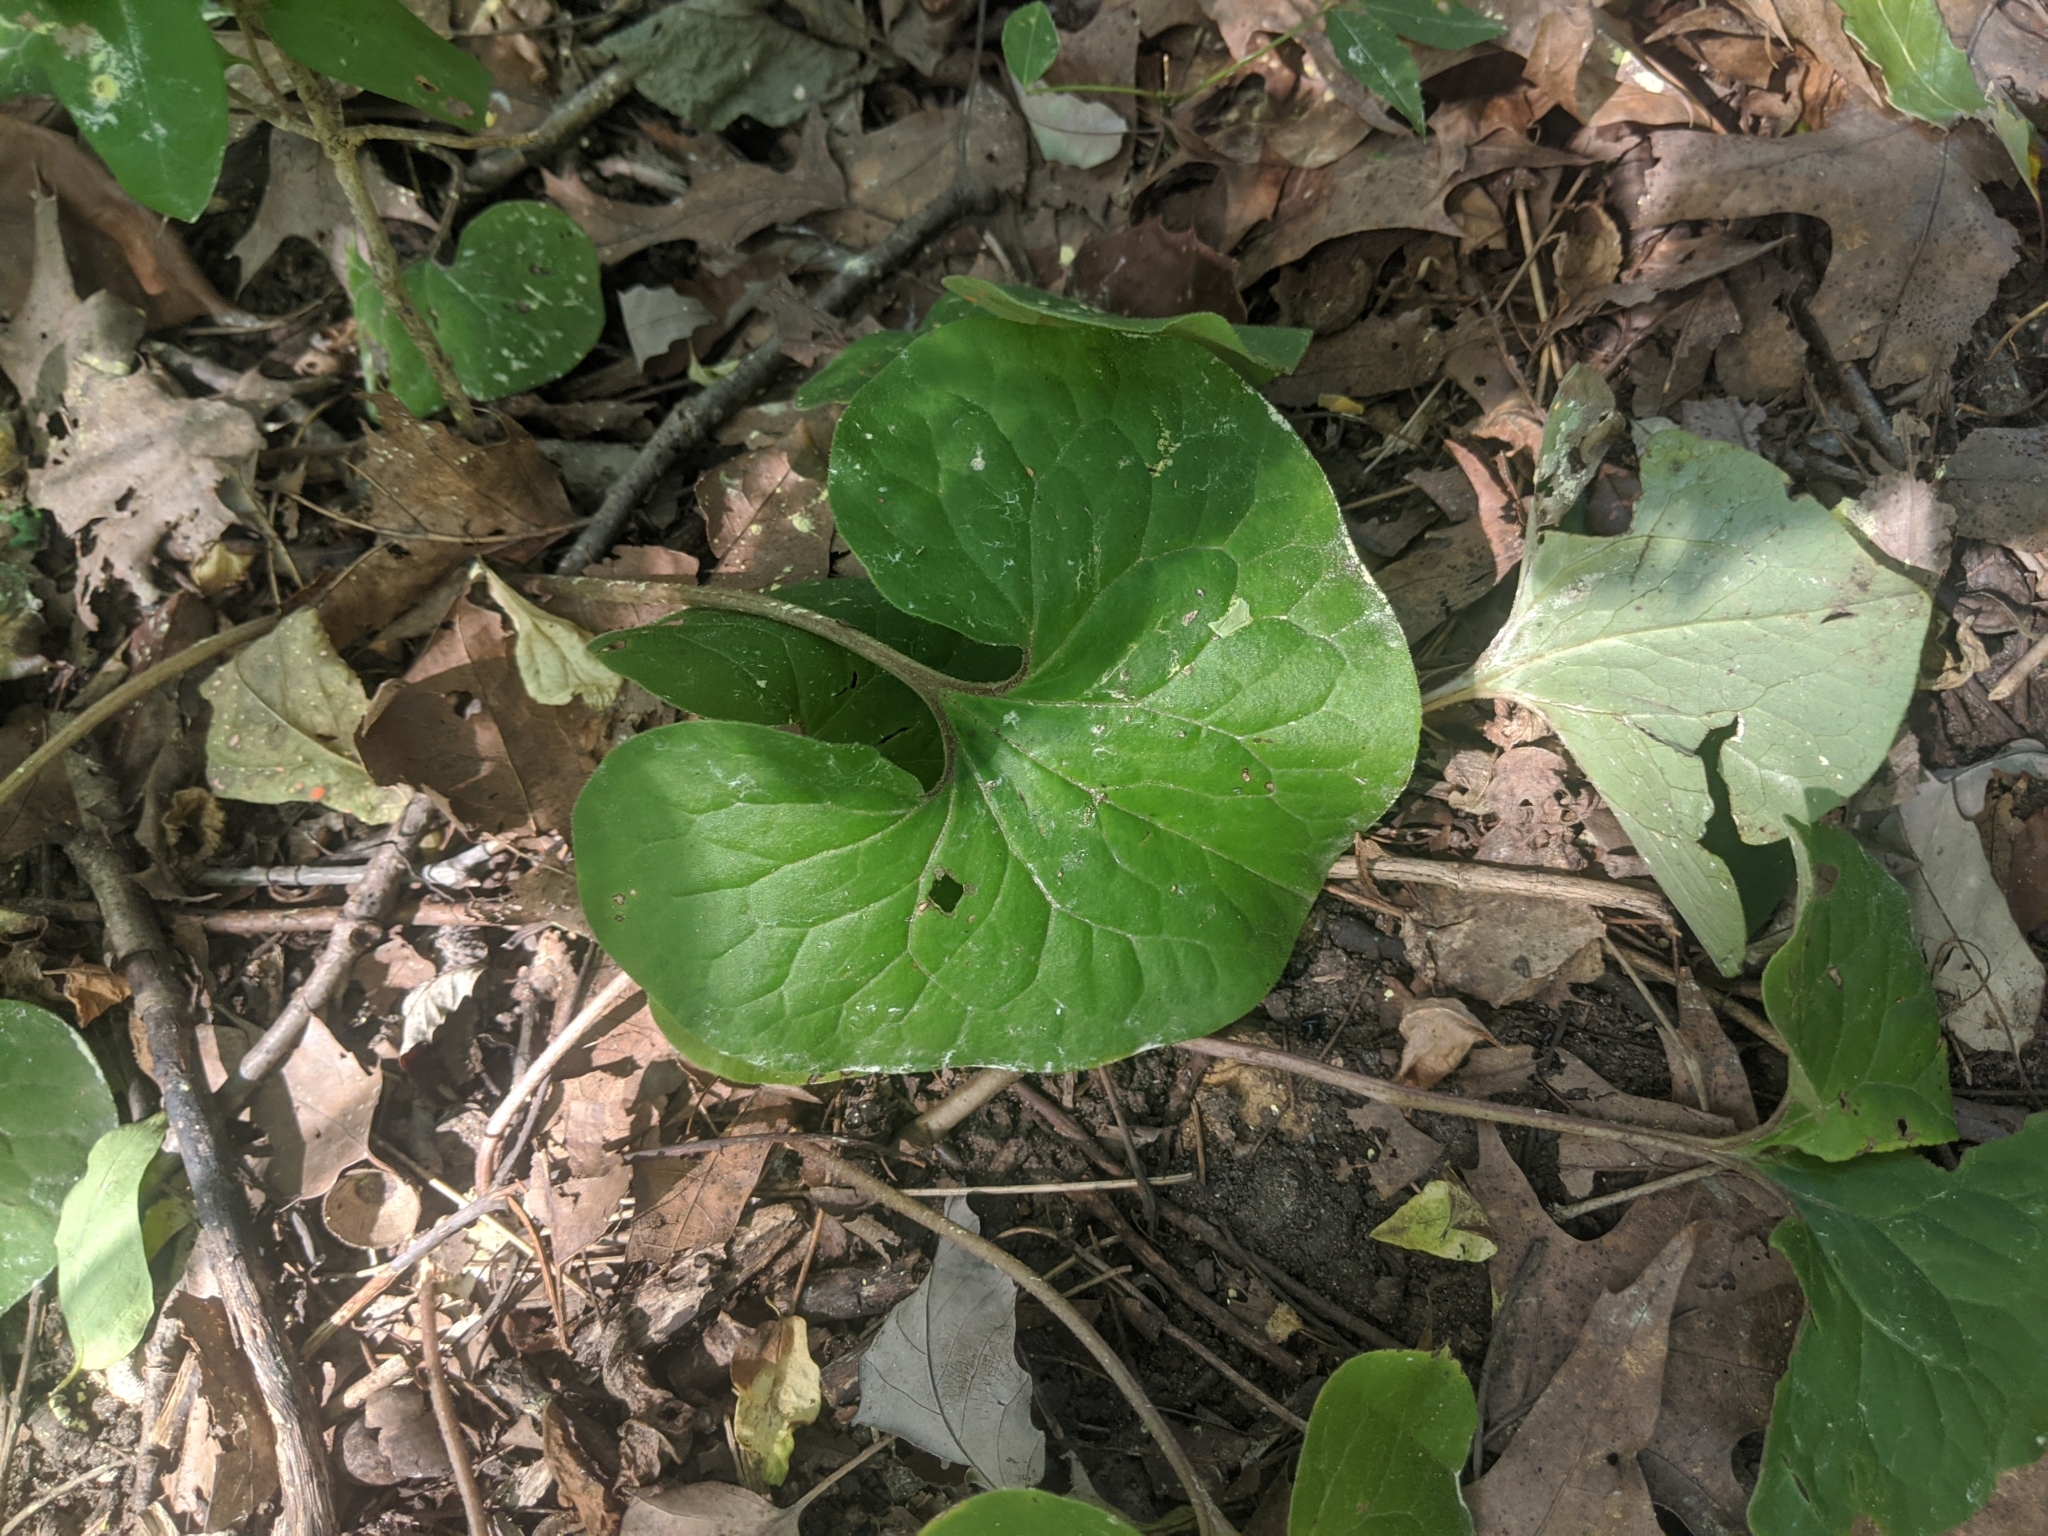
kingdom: Plantae
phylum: Tracheophyta
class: Magnoliopsida
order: Piperales
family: Aristolochiaceae
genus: Asarum
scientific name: Asarum canadense
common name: Wild ginger
